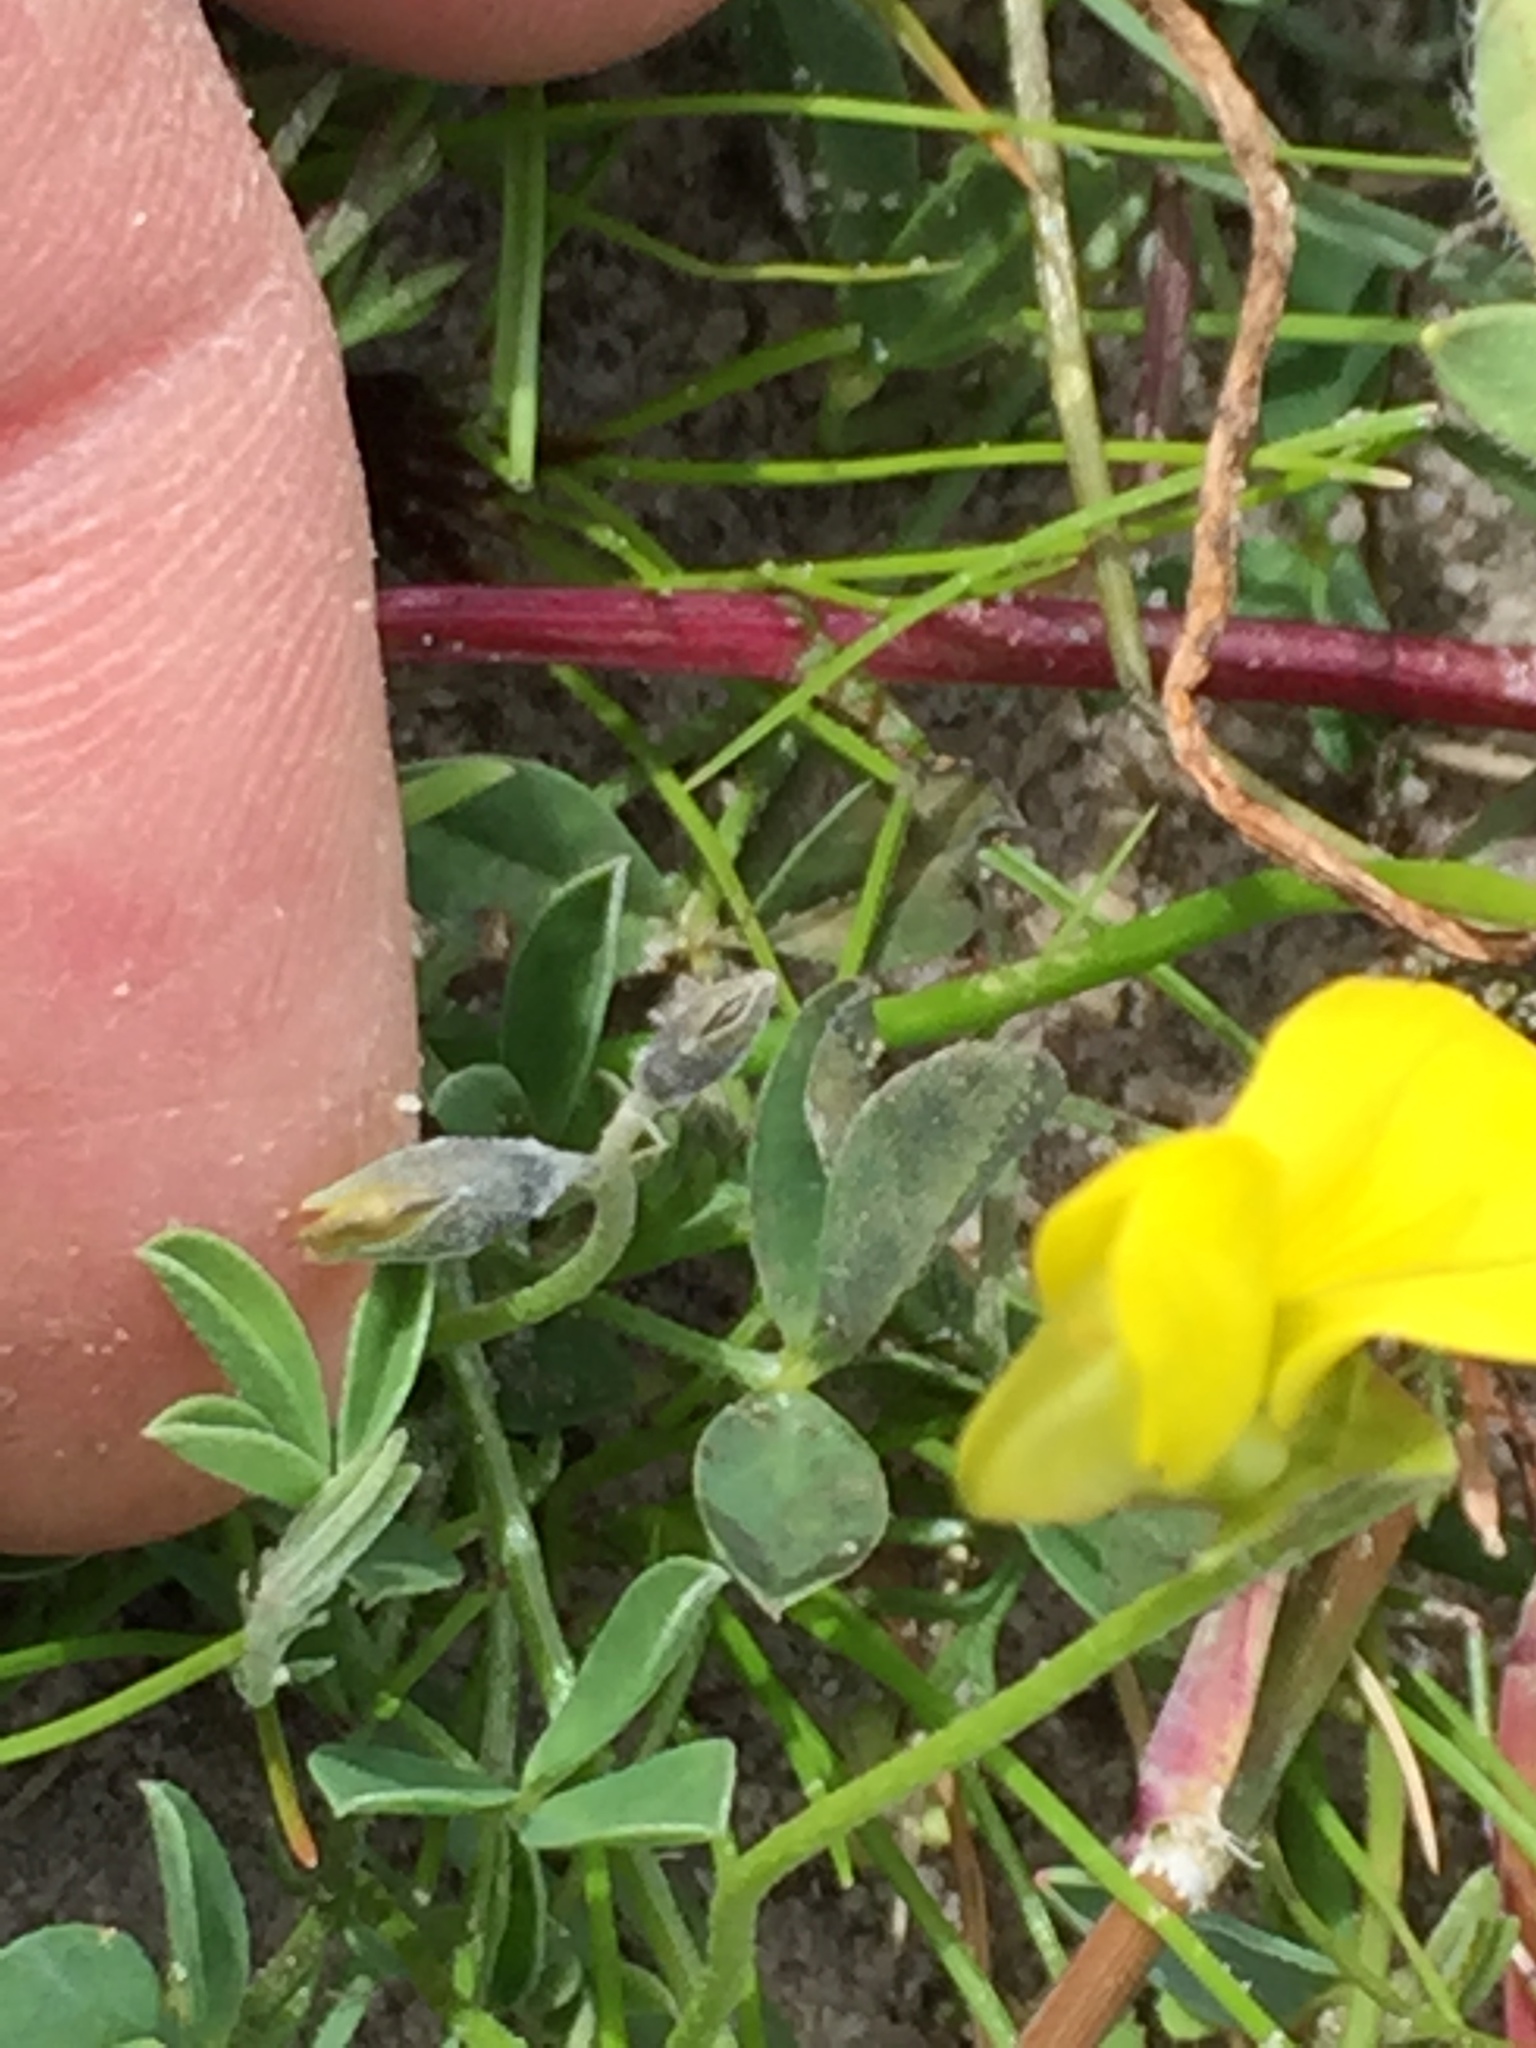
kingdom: Plantae
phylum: Tracheophyta
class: Magnoliopsida
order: Fabales
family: Fabaceae
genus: Crotalaria
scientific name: Crotalaria excisa
